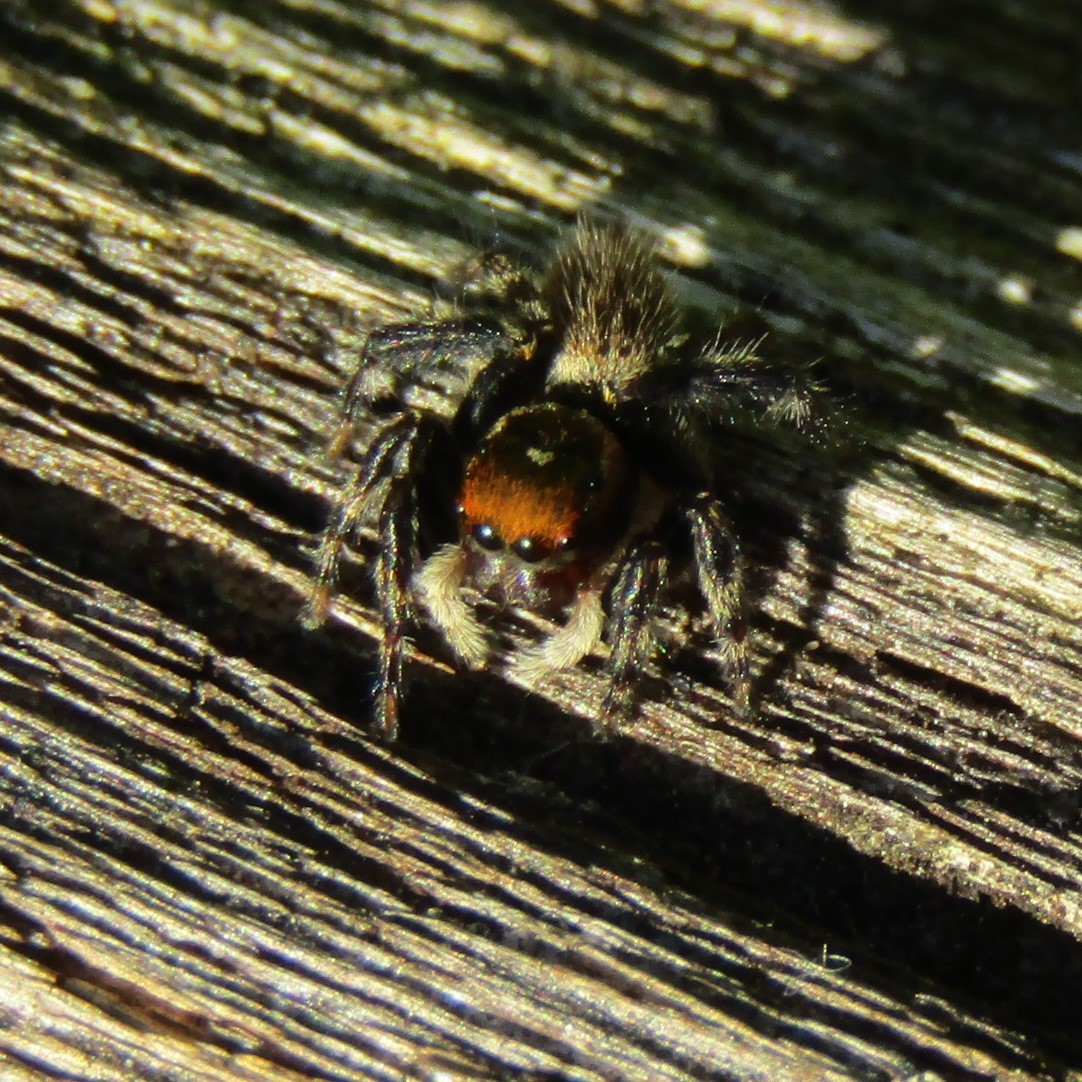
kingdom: Animalia
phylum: Arthropoda
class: Arachnida
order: Araneae
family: Salticidae
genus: Maratus
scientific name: Maratus griseus
